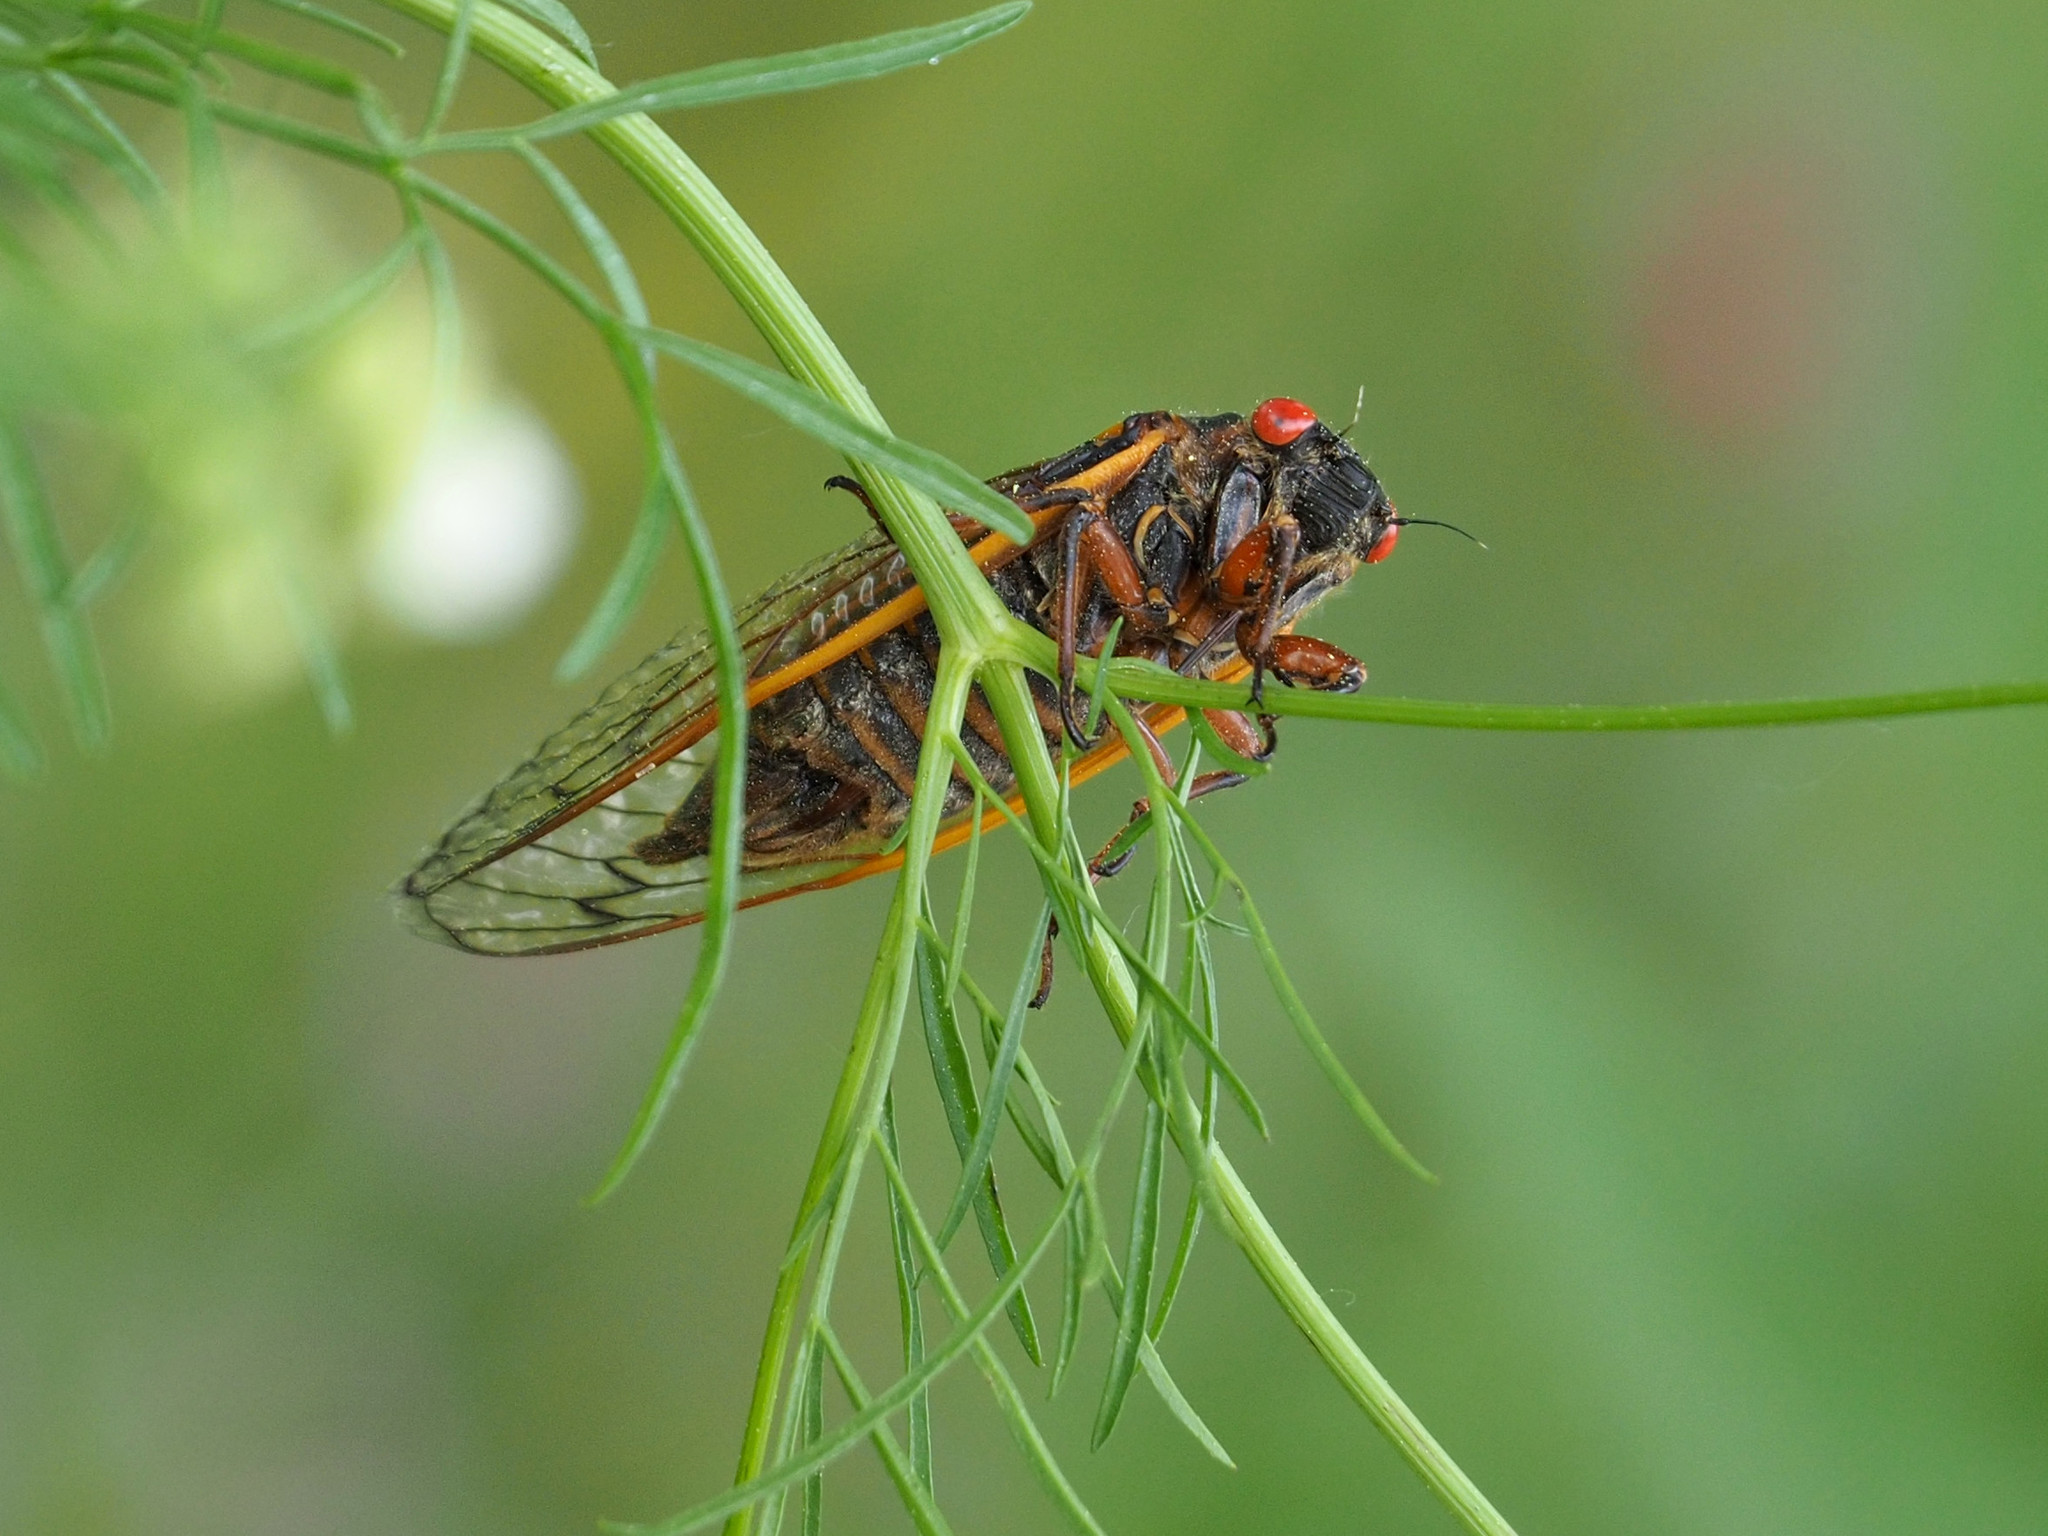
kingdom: Animalia
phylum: Arthropoda
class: Insecta
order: Hemiptera
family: Cicadidae
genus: Magicicada
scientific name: Magicicada septendecim
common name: Periodical cicada
